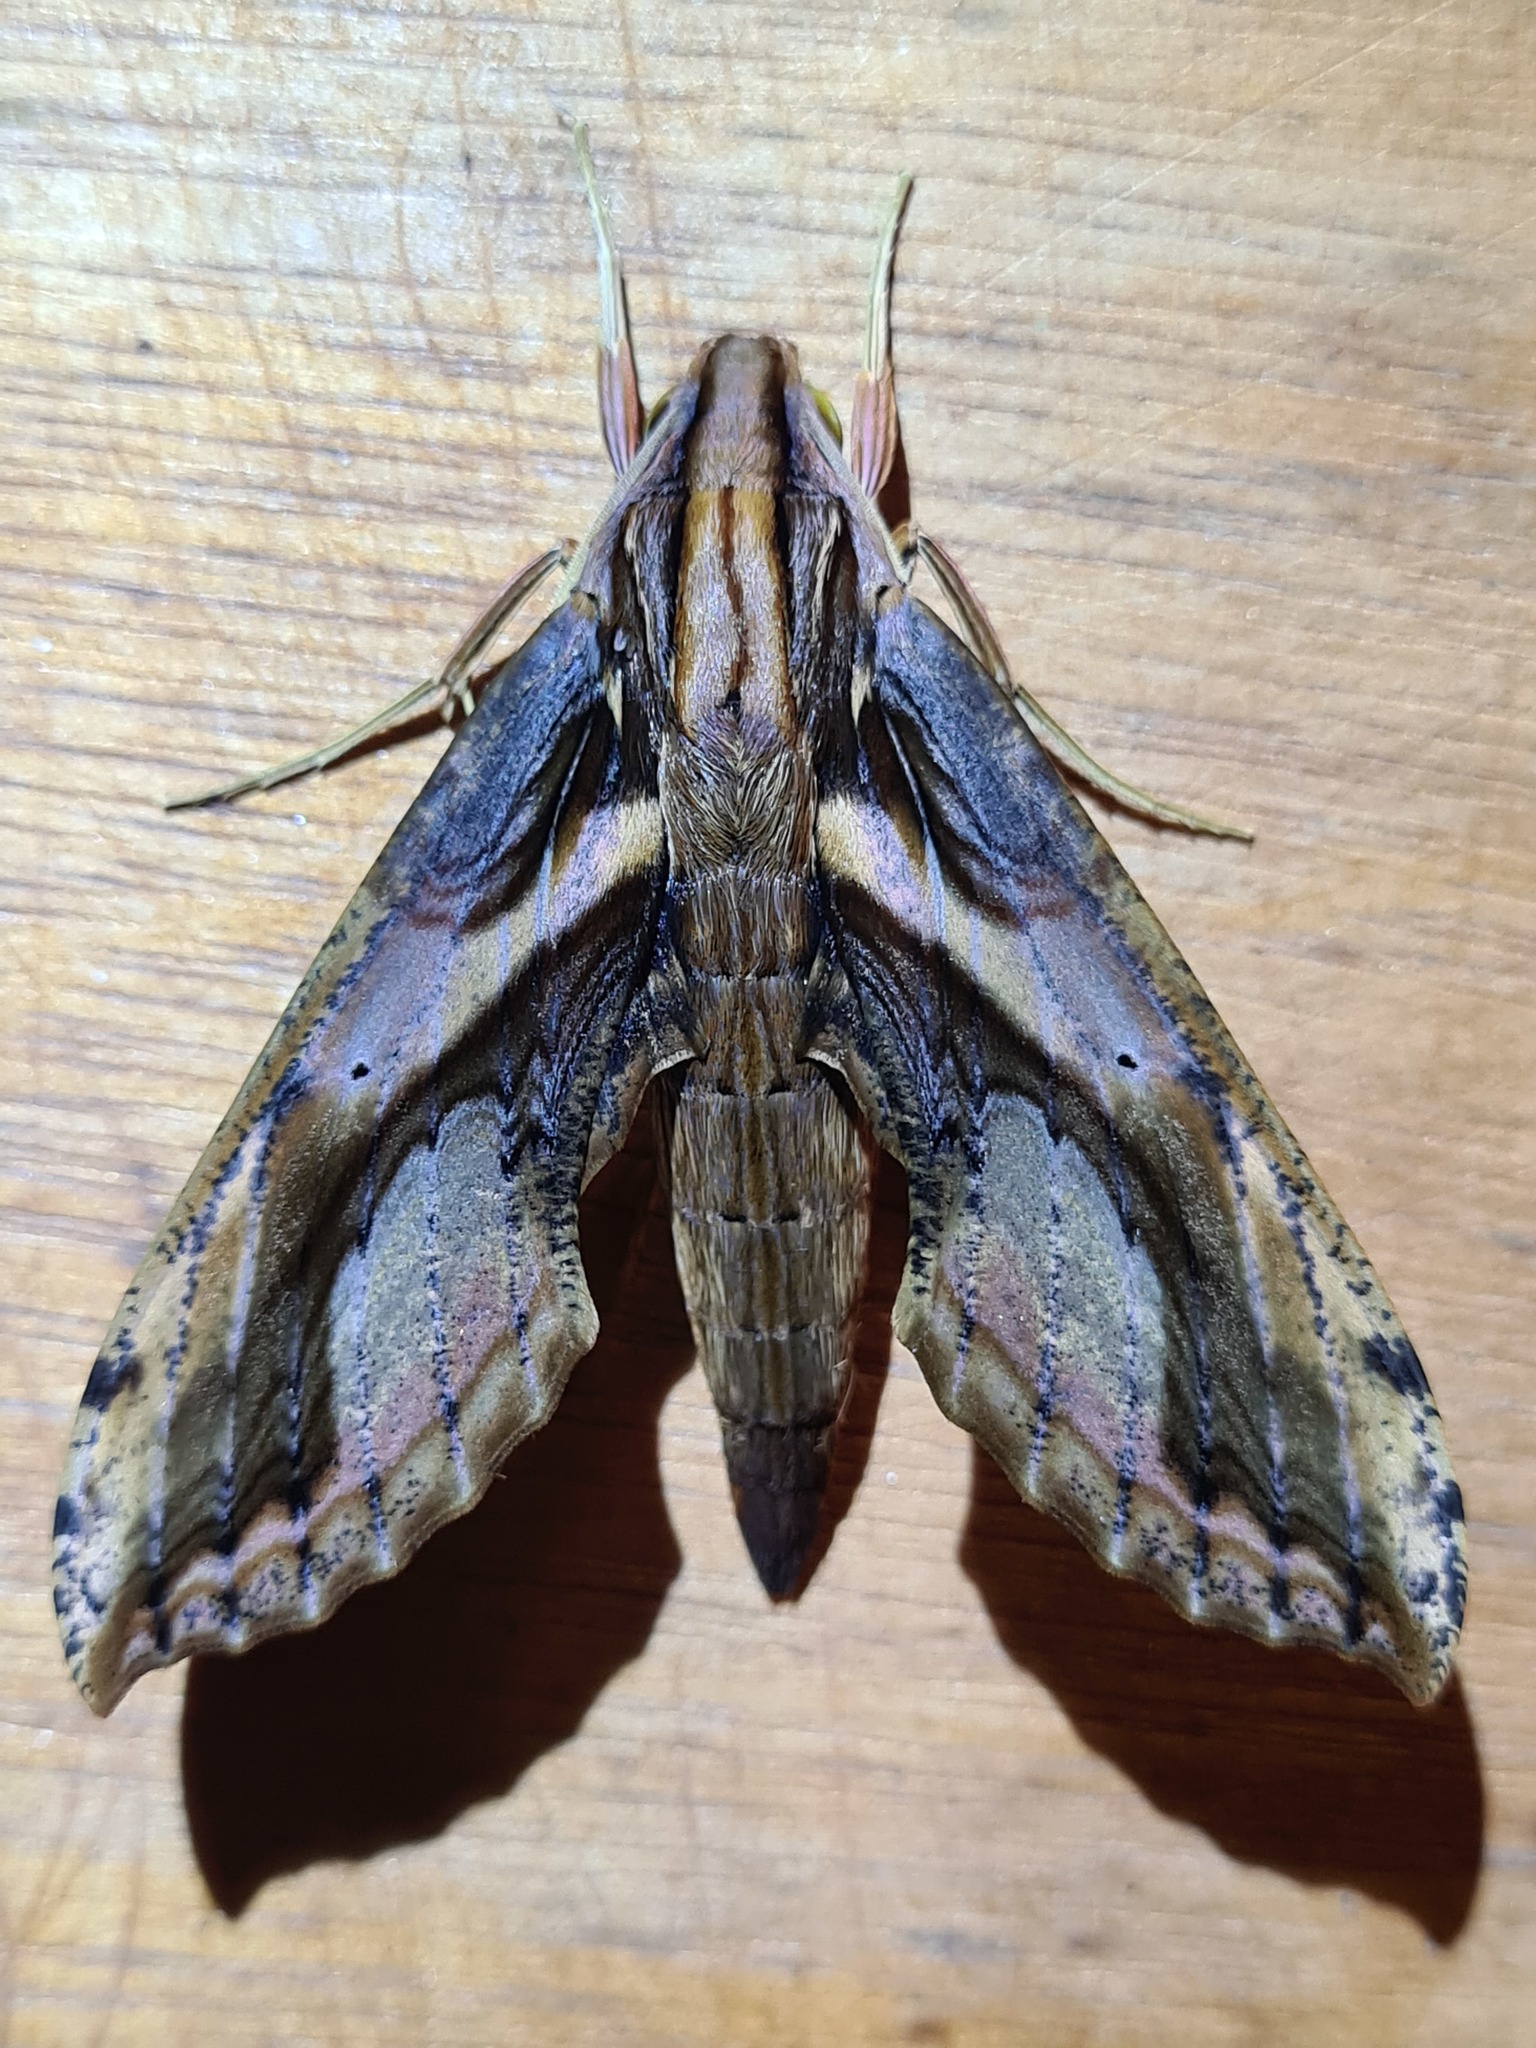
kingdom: Animalia
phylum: Arthropoda
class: Insecta
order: Lepidoptera
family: Sphingidae
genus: Xylophanes
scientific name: Xylophanes ceratomioides
